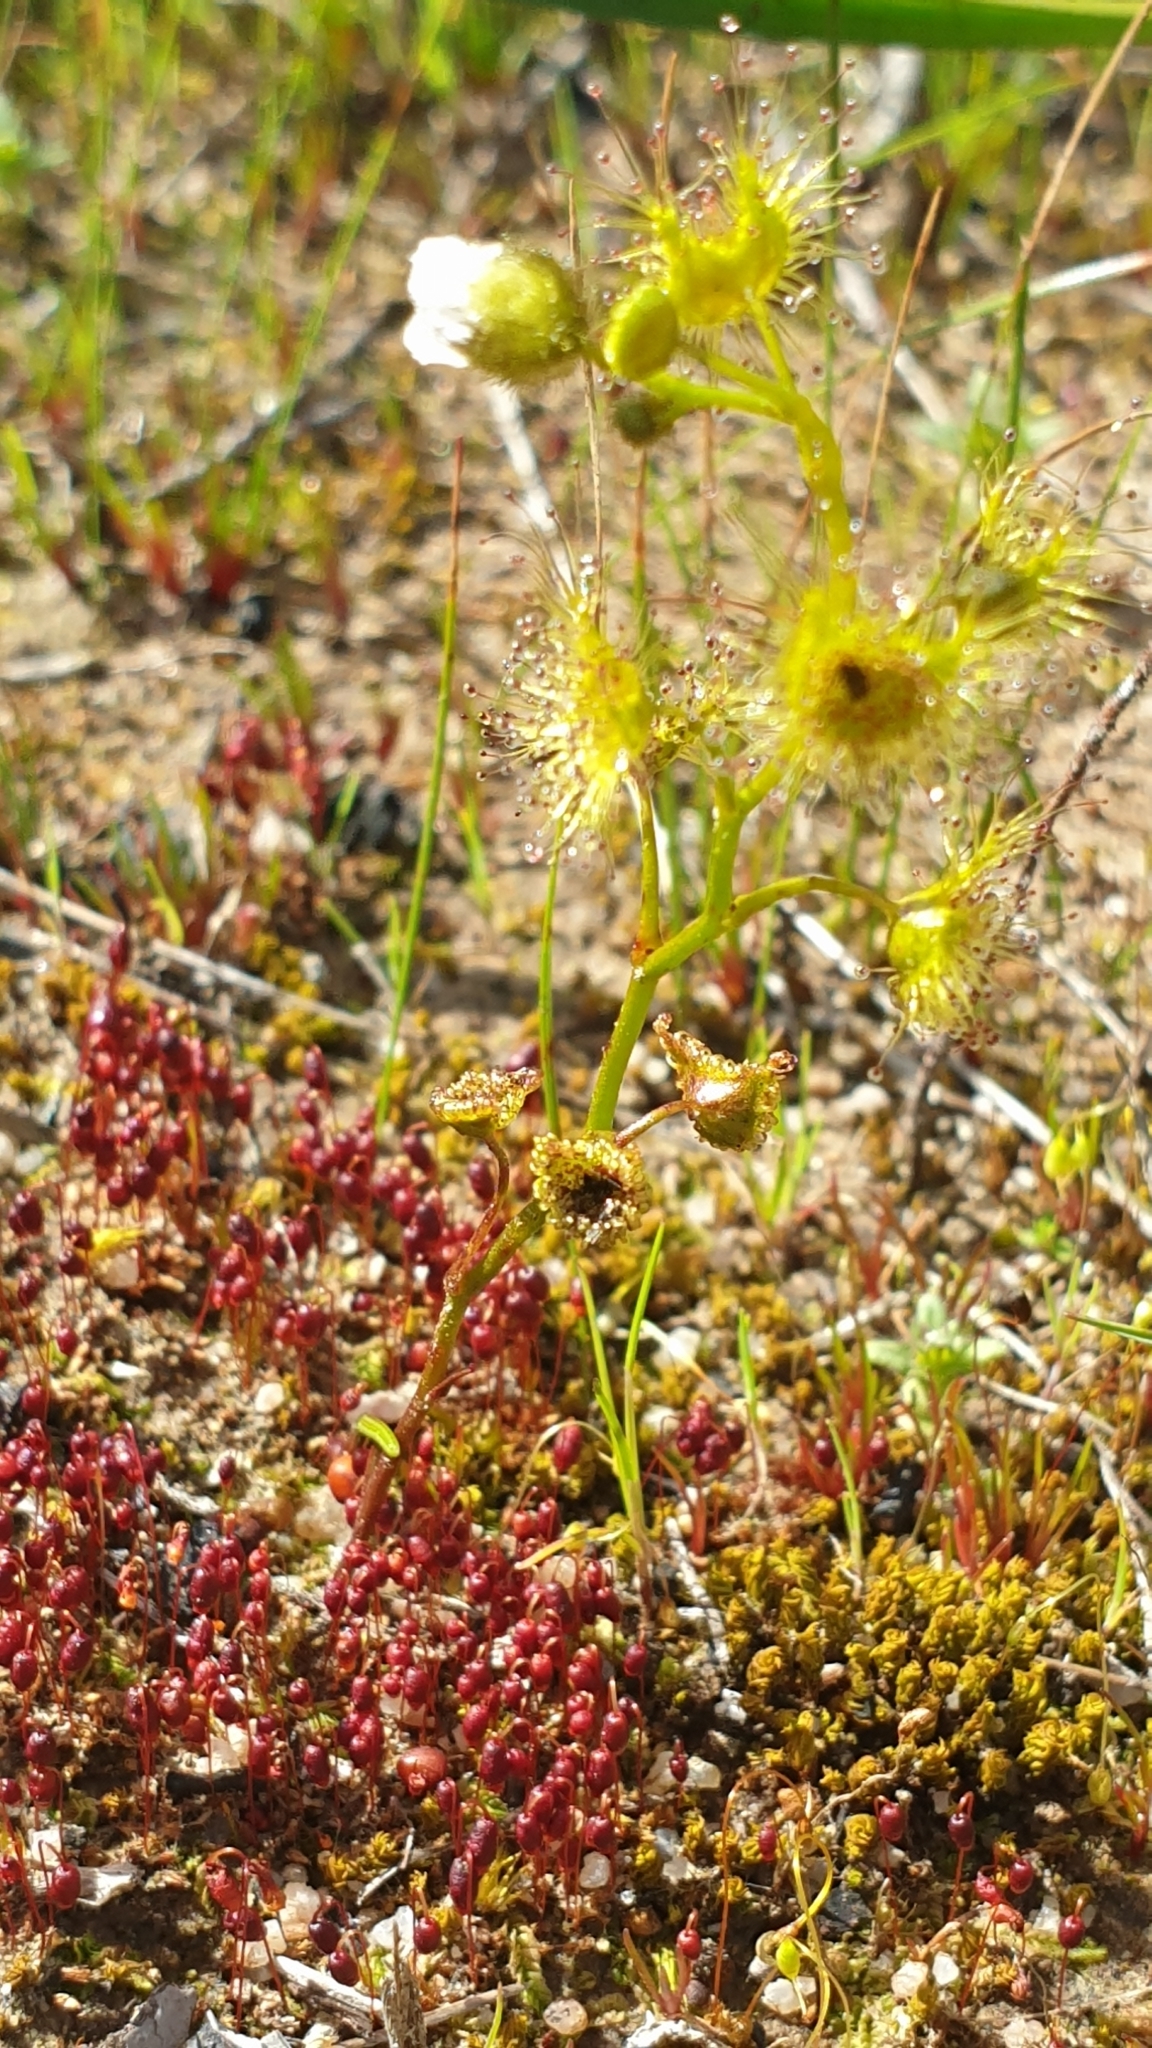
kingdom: Plantae
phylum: Bryophyta
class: Bryopsida
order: Bryales
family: Bryaceae
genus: Gemmabryum
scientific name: Gemmabryum coronatum
